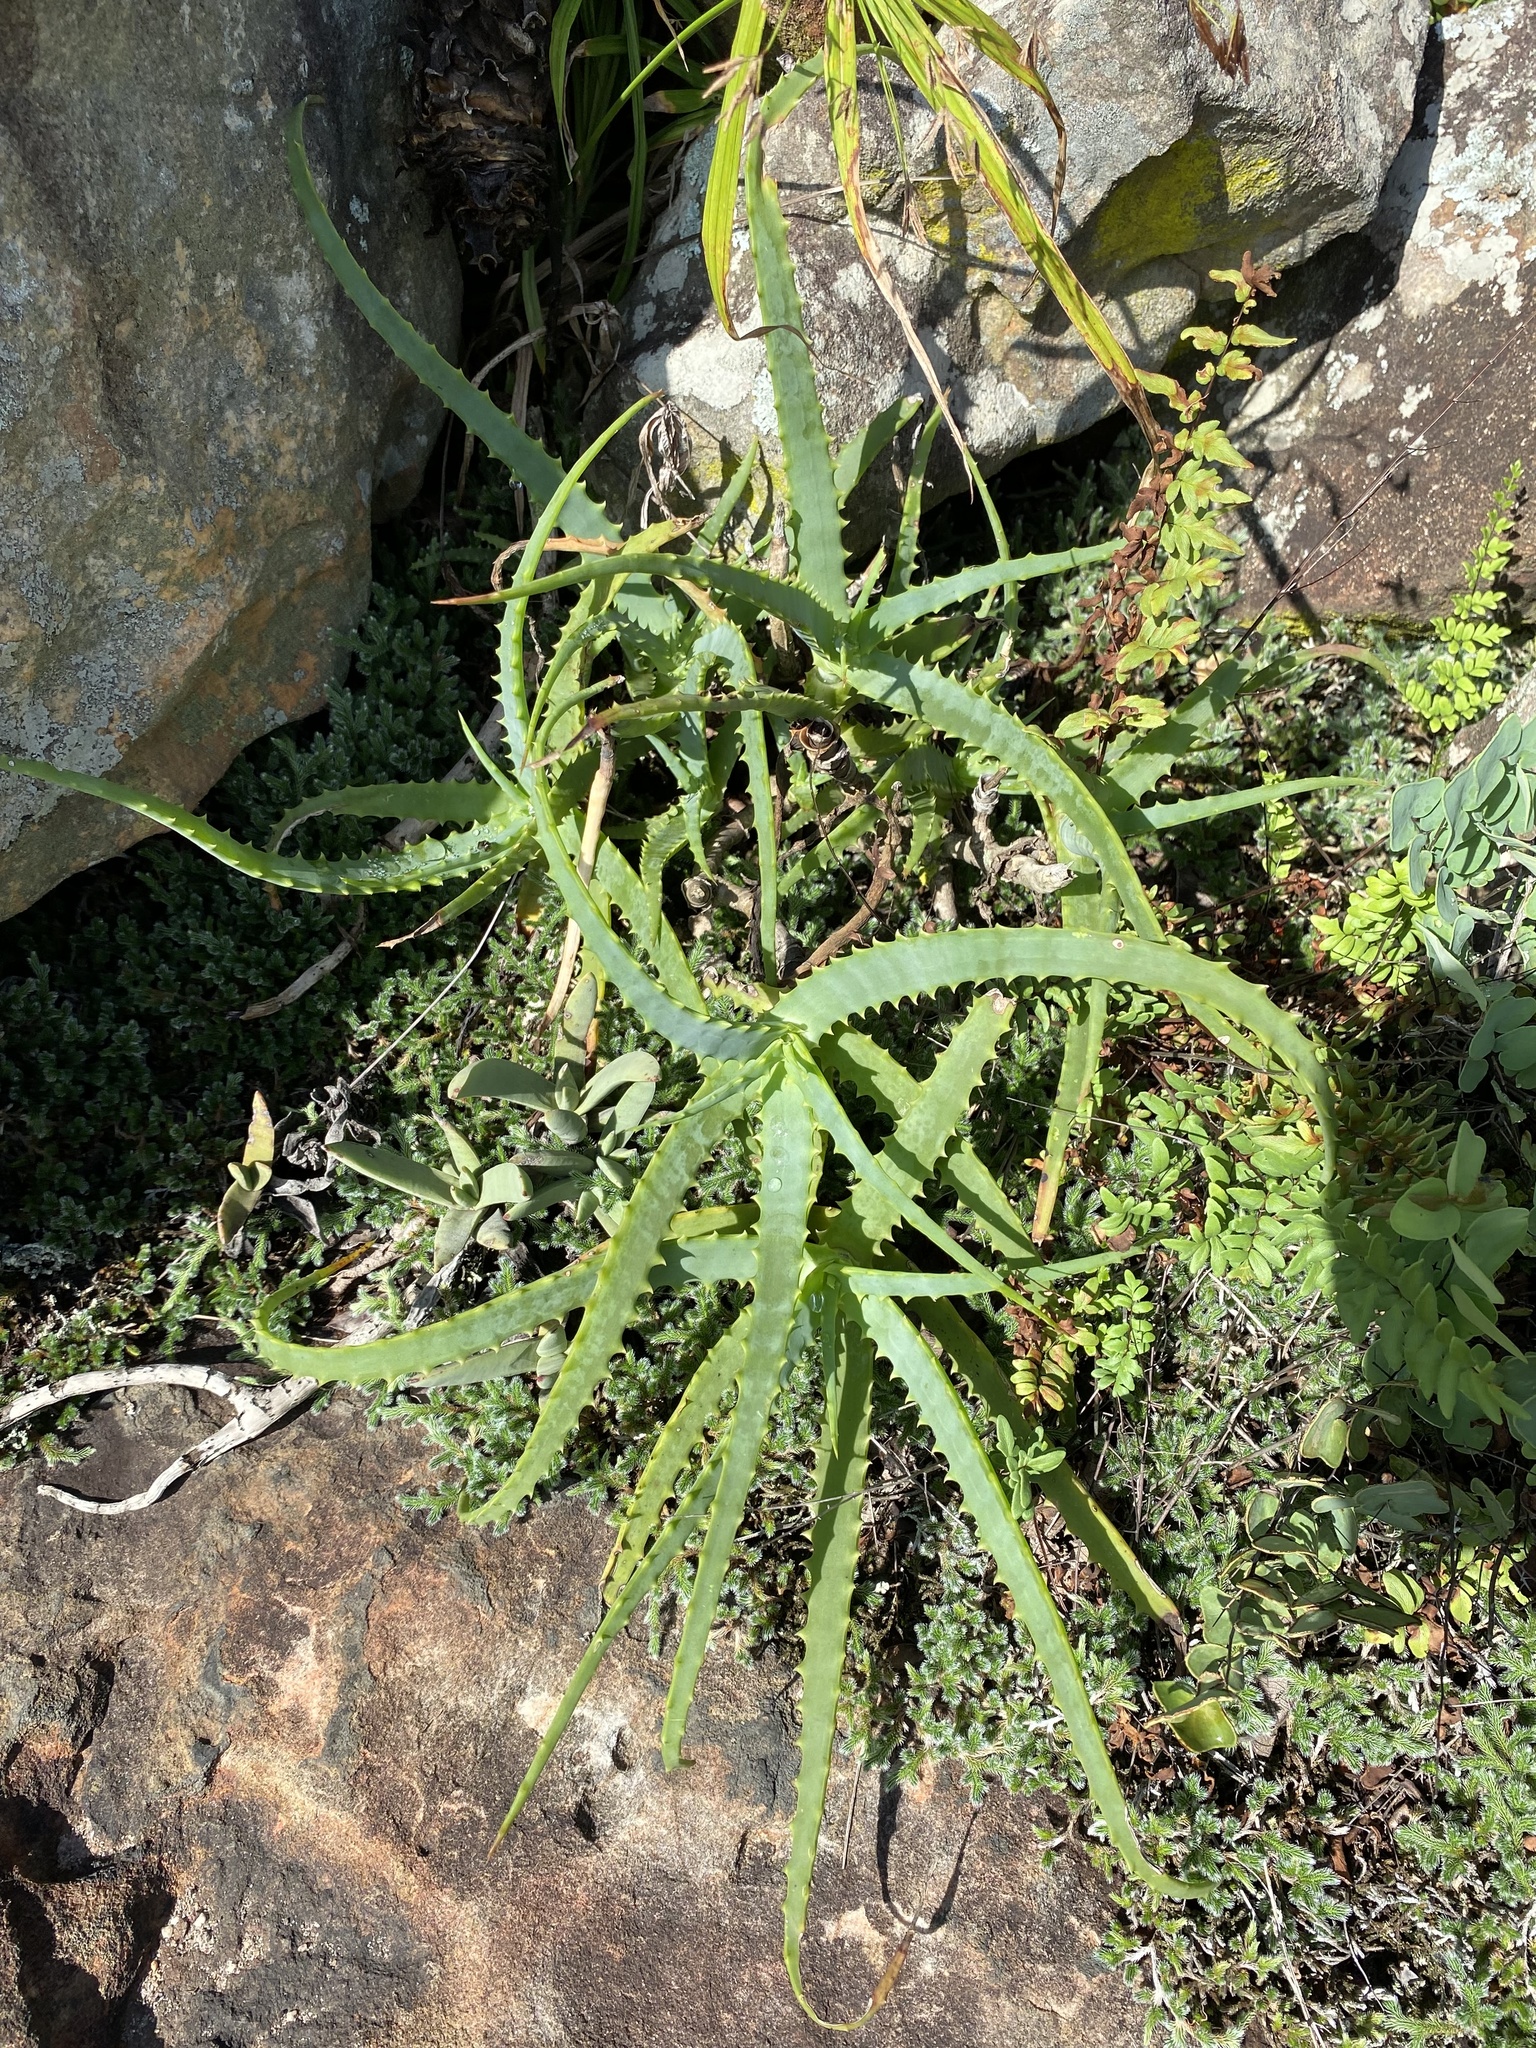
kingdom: Plantae
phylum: Tracheophyta
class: Liliopsida
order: Asparagales
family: Asphodelaceae
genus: Aloe
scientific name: Aloe arborescens
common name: Candelabra aloe
